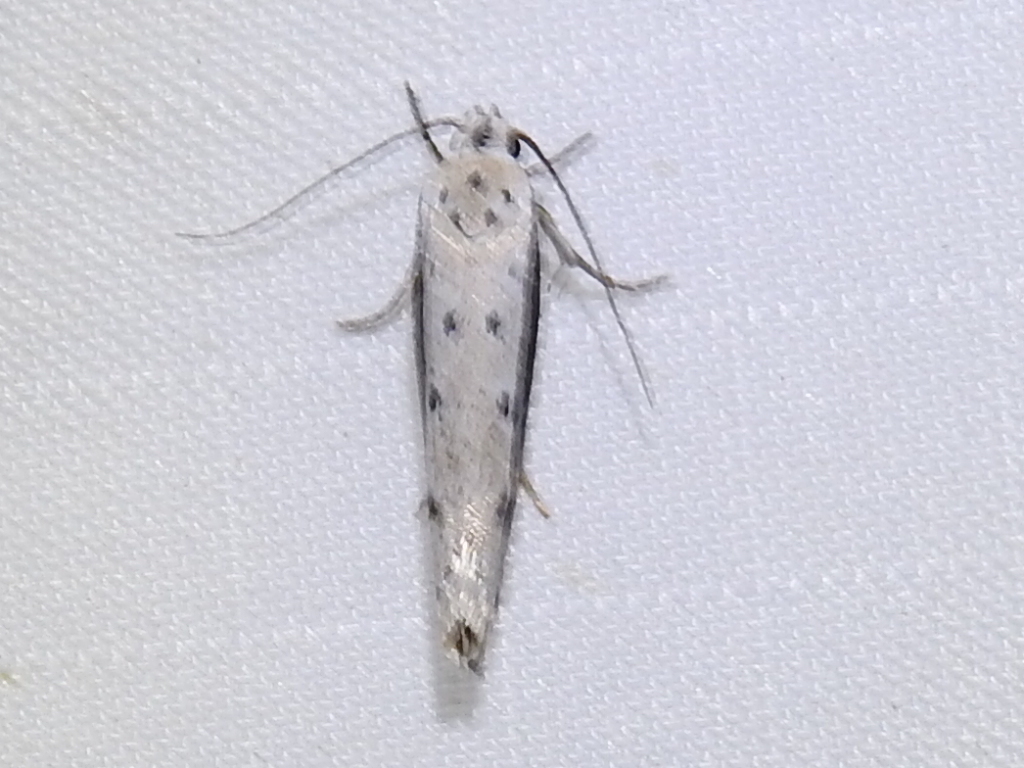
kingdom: Animalia
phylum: Arthropoda
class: Insecta
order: Lepidoptera
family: Ethmiidae
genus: Ethmia
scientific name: Ethmia mirusella
